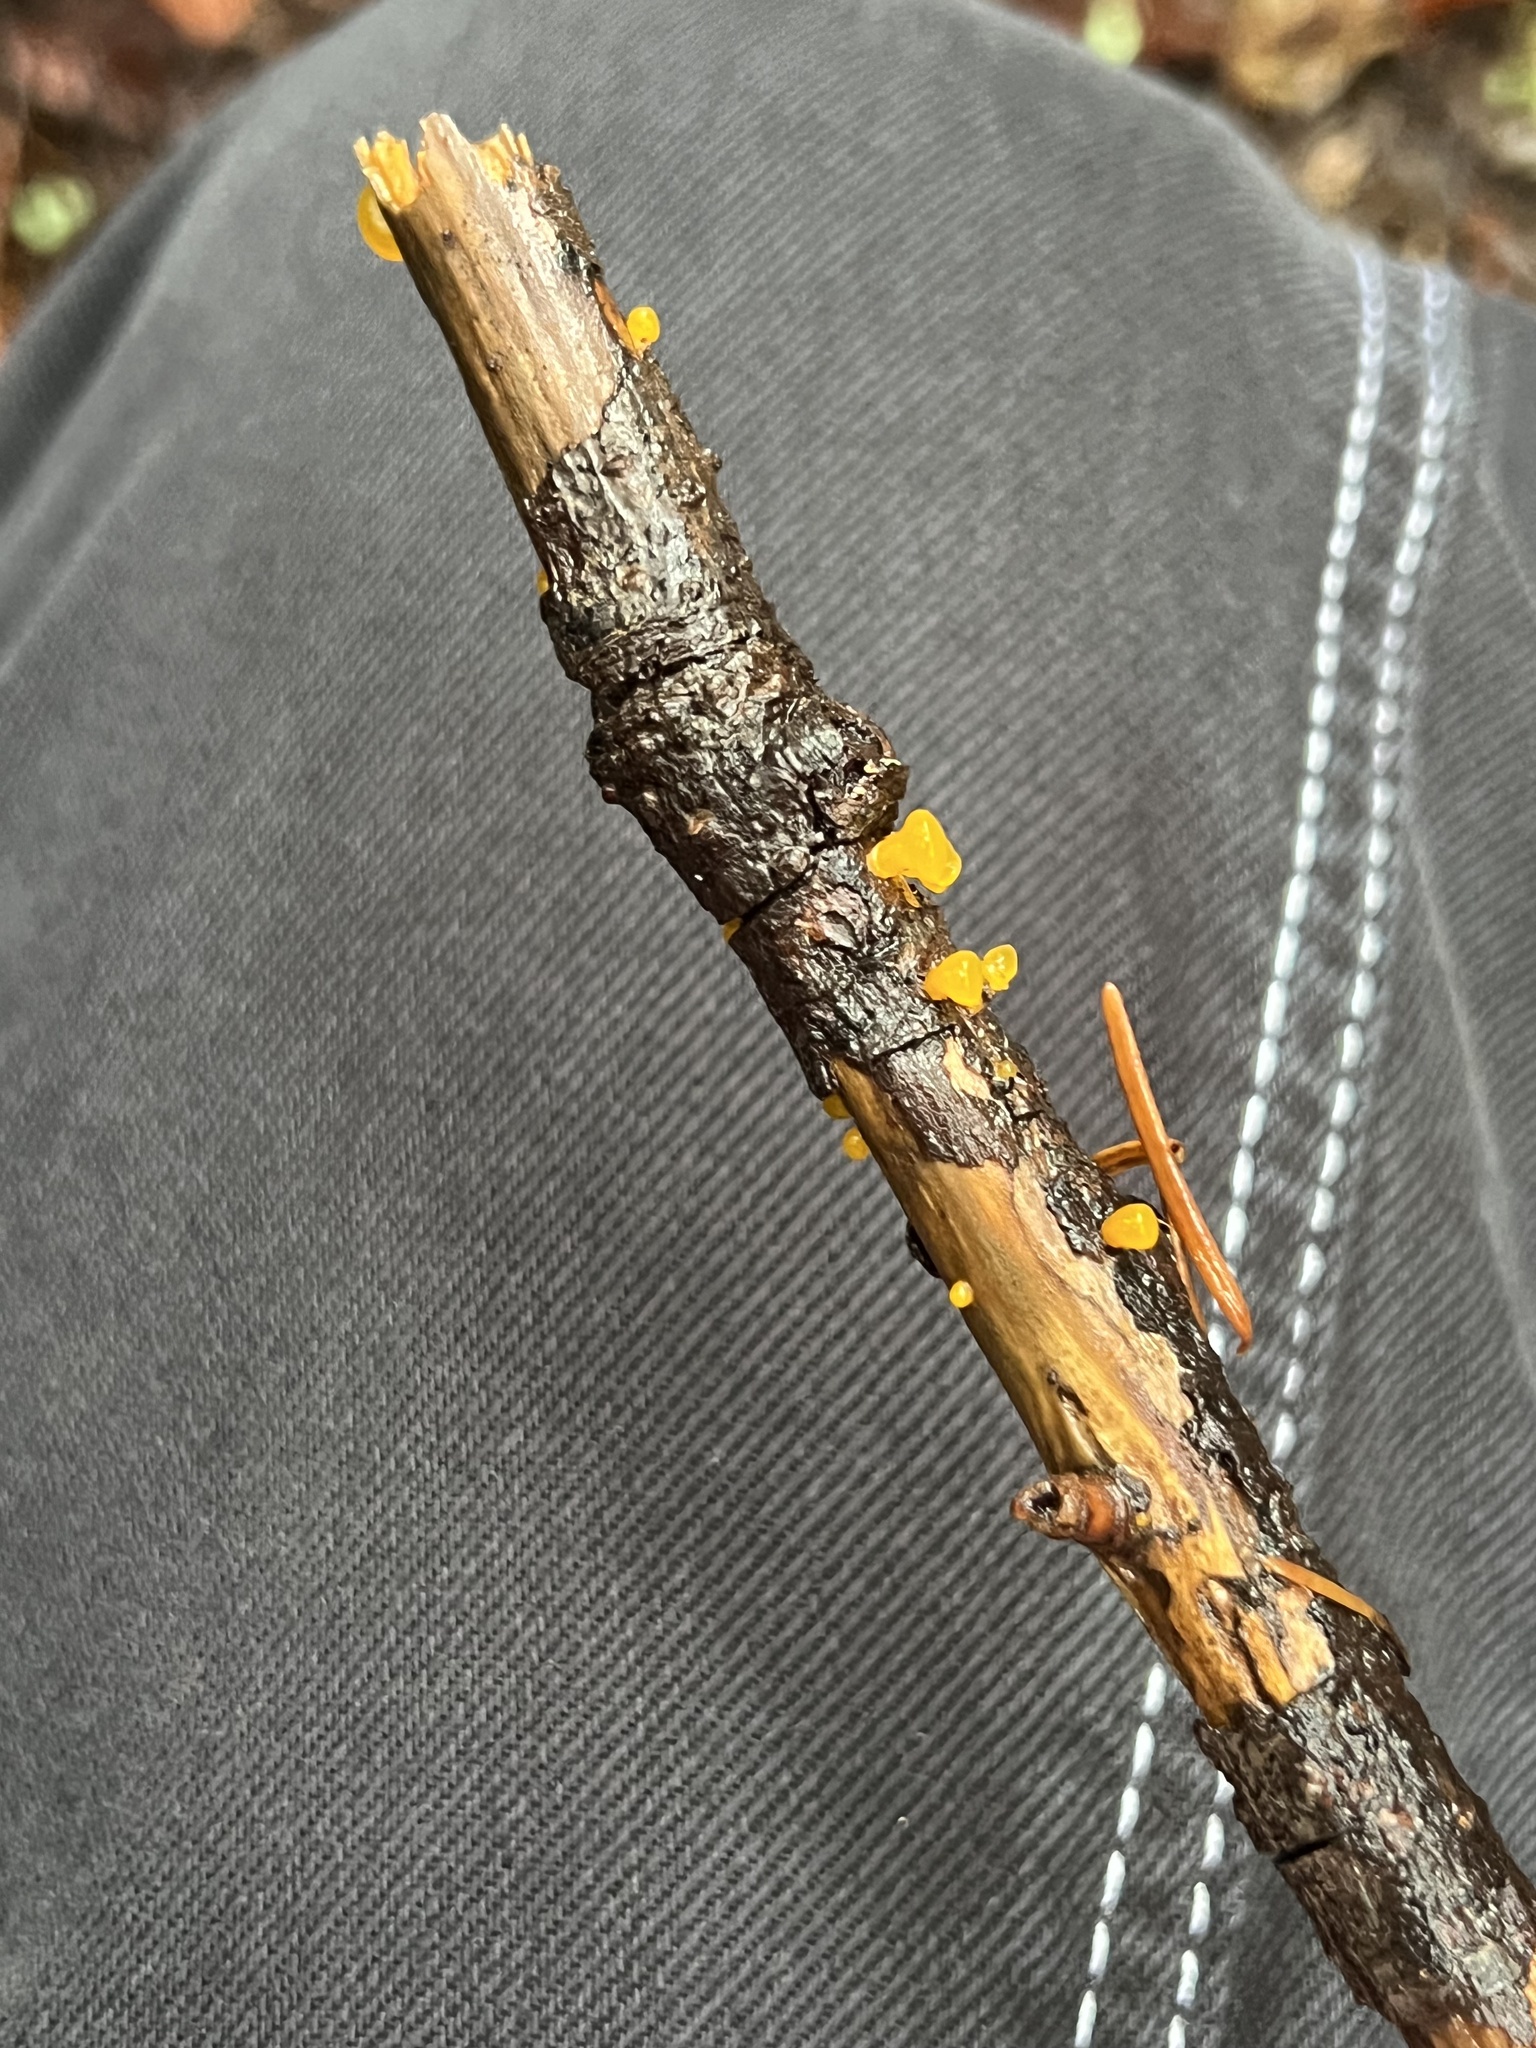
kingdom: Fungi
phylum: Basidiomycota
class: Dacrymycetes
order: Dacrymycetales
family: Dacrymycetaceae
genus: Dacrymyces
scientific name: Dacrymyces capitatus
